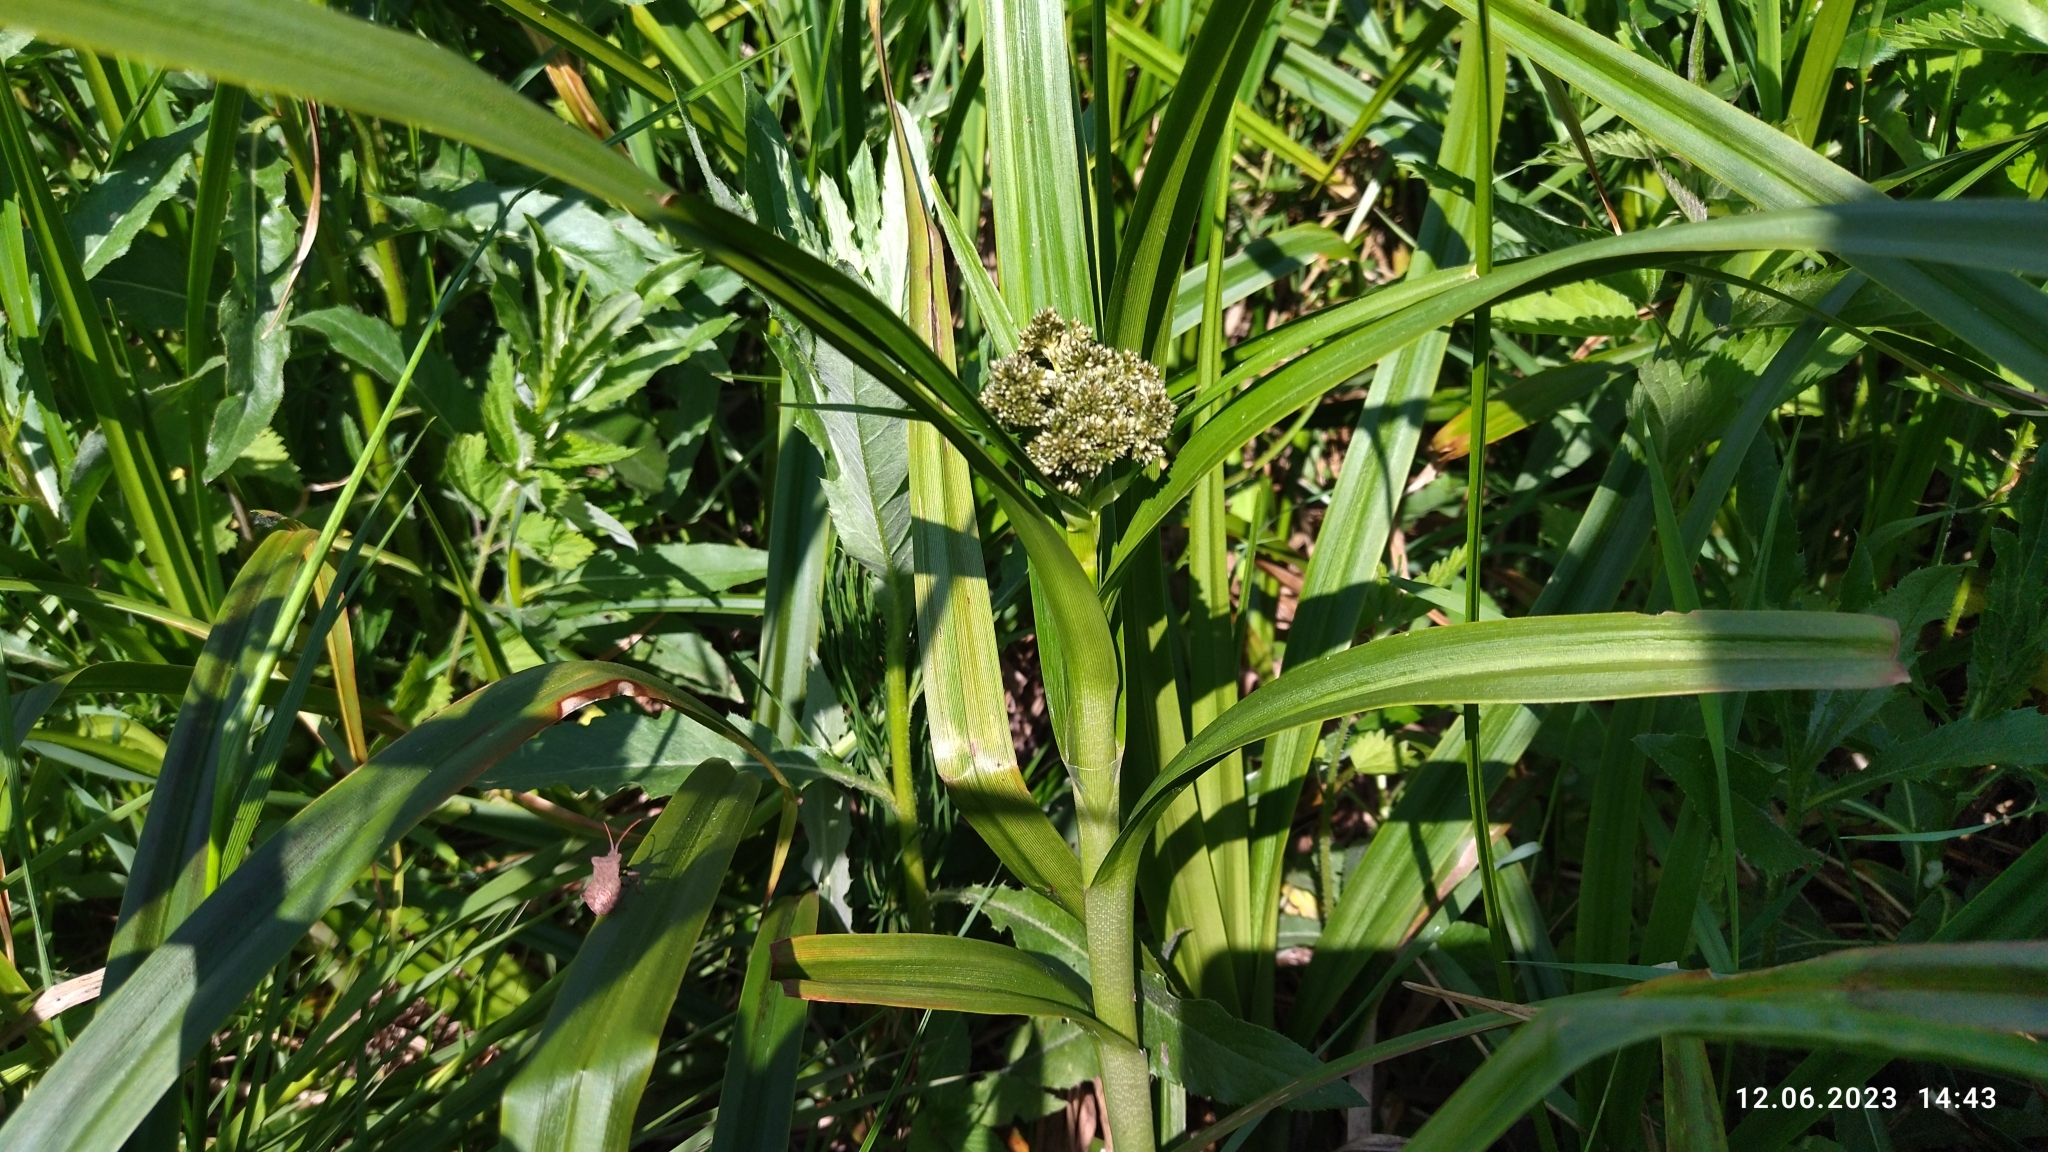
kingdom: Plantae
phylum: Tracheophyta
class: Liliopsida
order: Poales
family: Cyperaceae
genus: Scirpus
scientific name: Scirpus sylvaticus
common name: Wood club-rush
